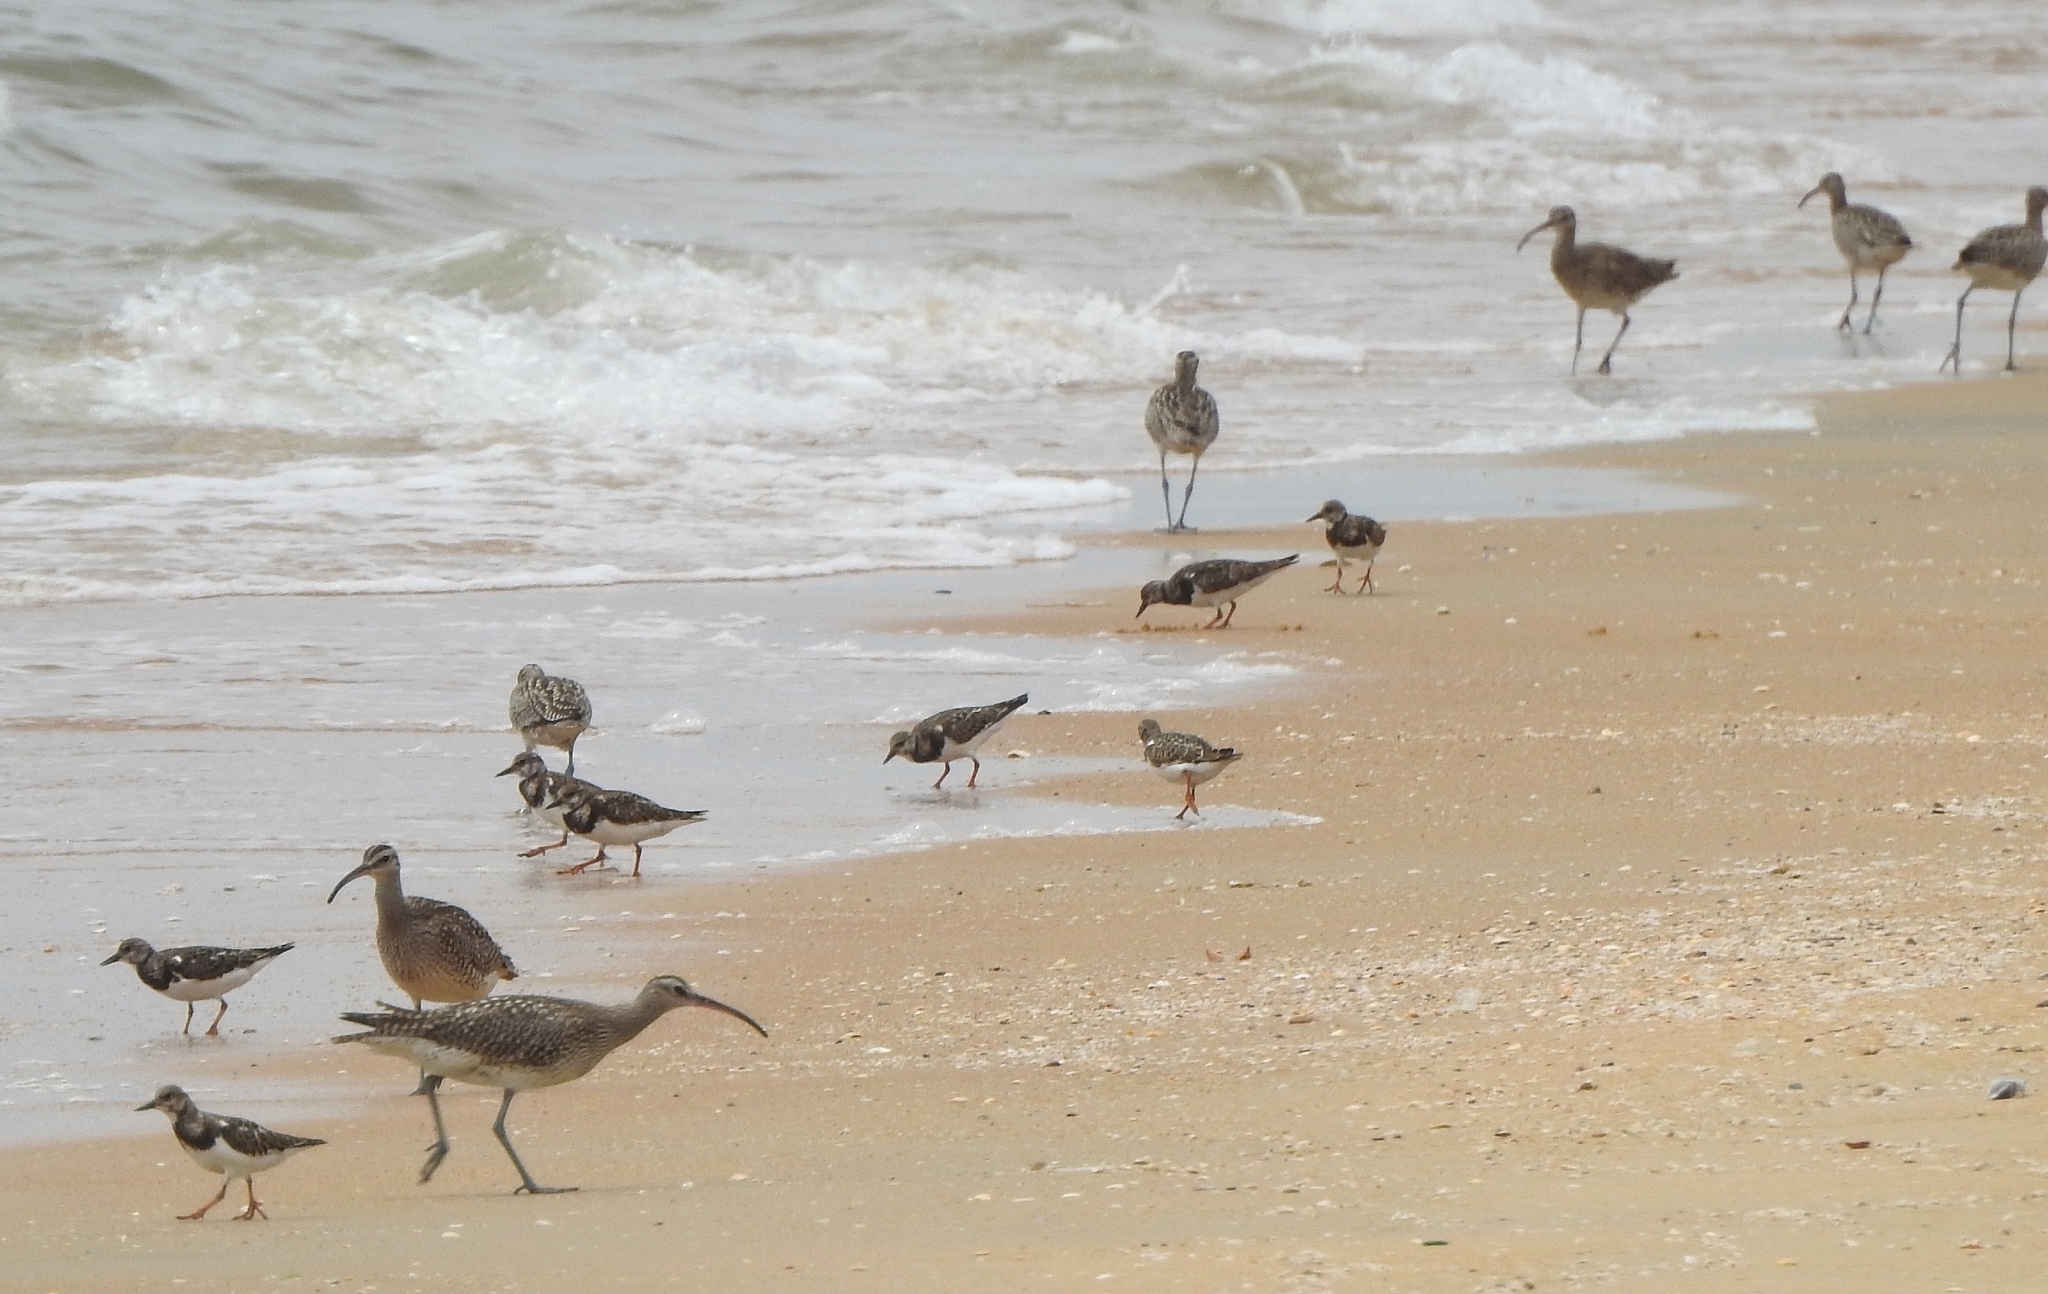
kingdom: Animalia
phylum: Chordata
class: Aves
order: Charadriiformes
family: Scolopacidae
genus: Arenaria
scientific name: Arenaria interpres
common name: Ruddy turnstone
